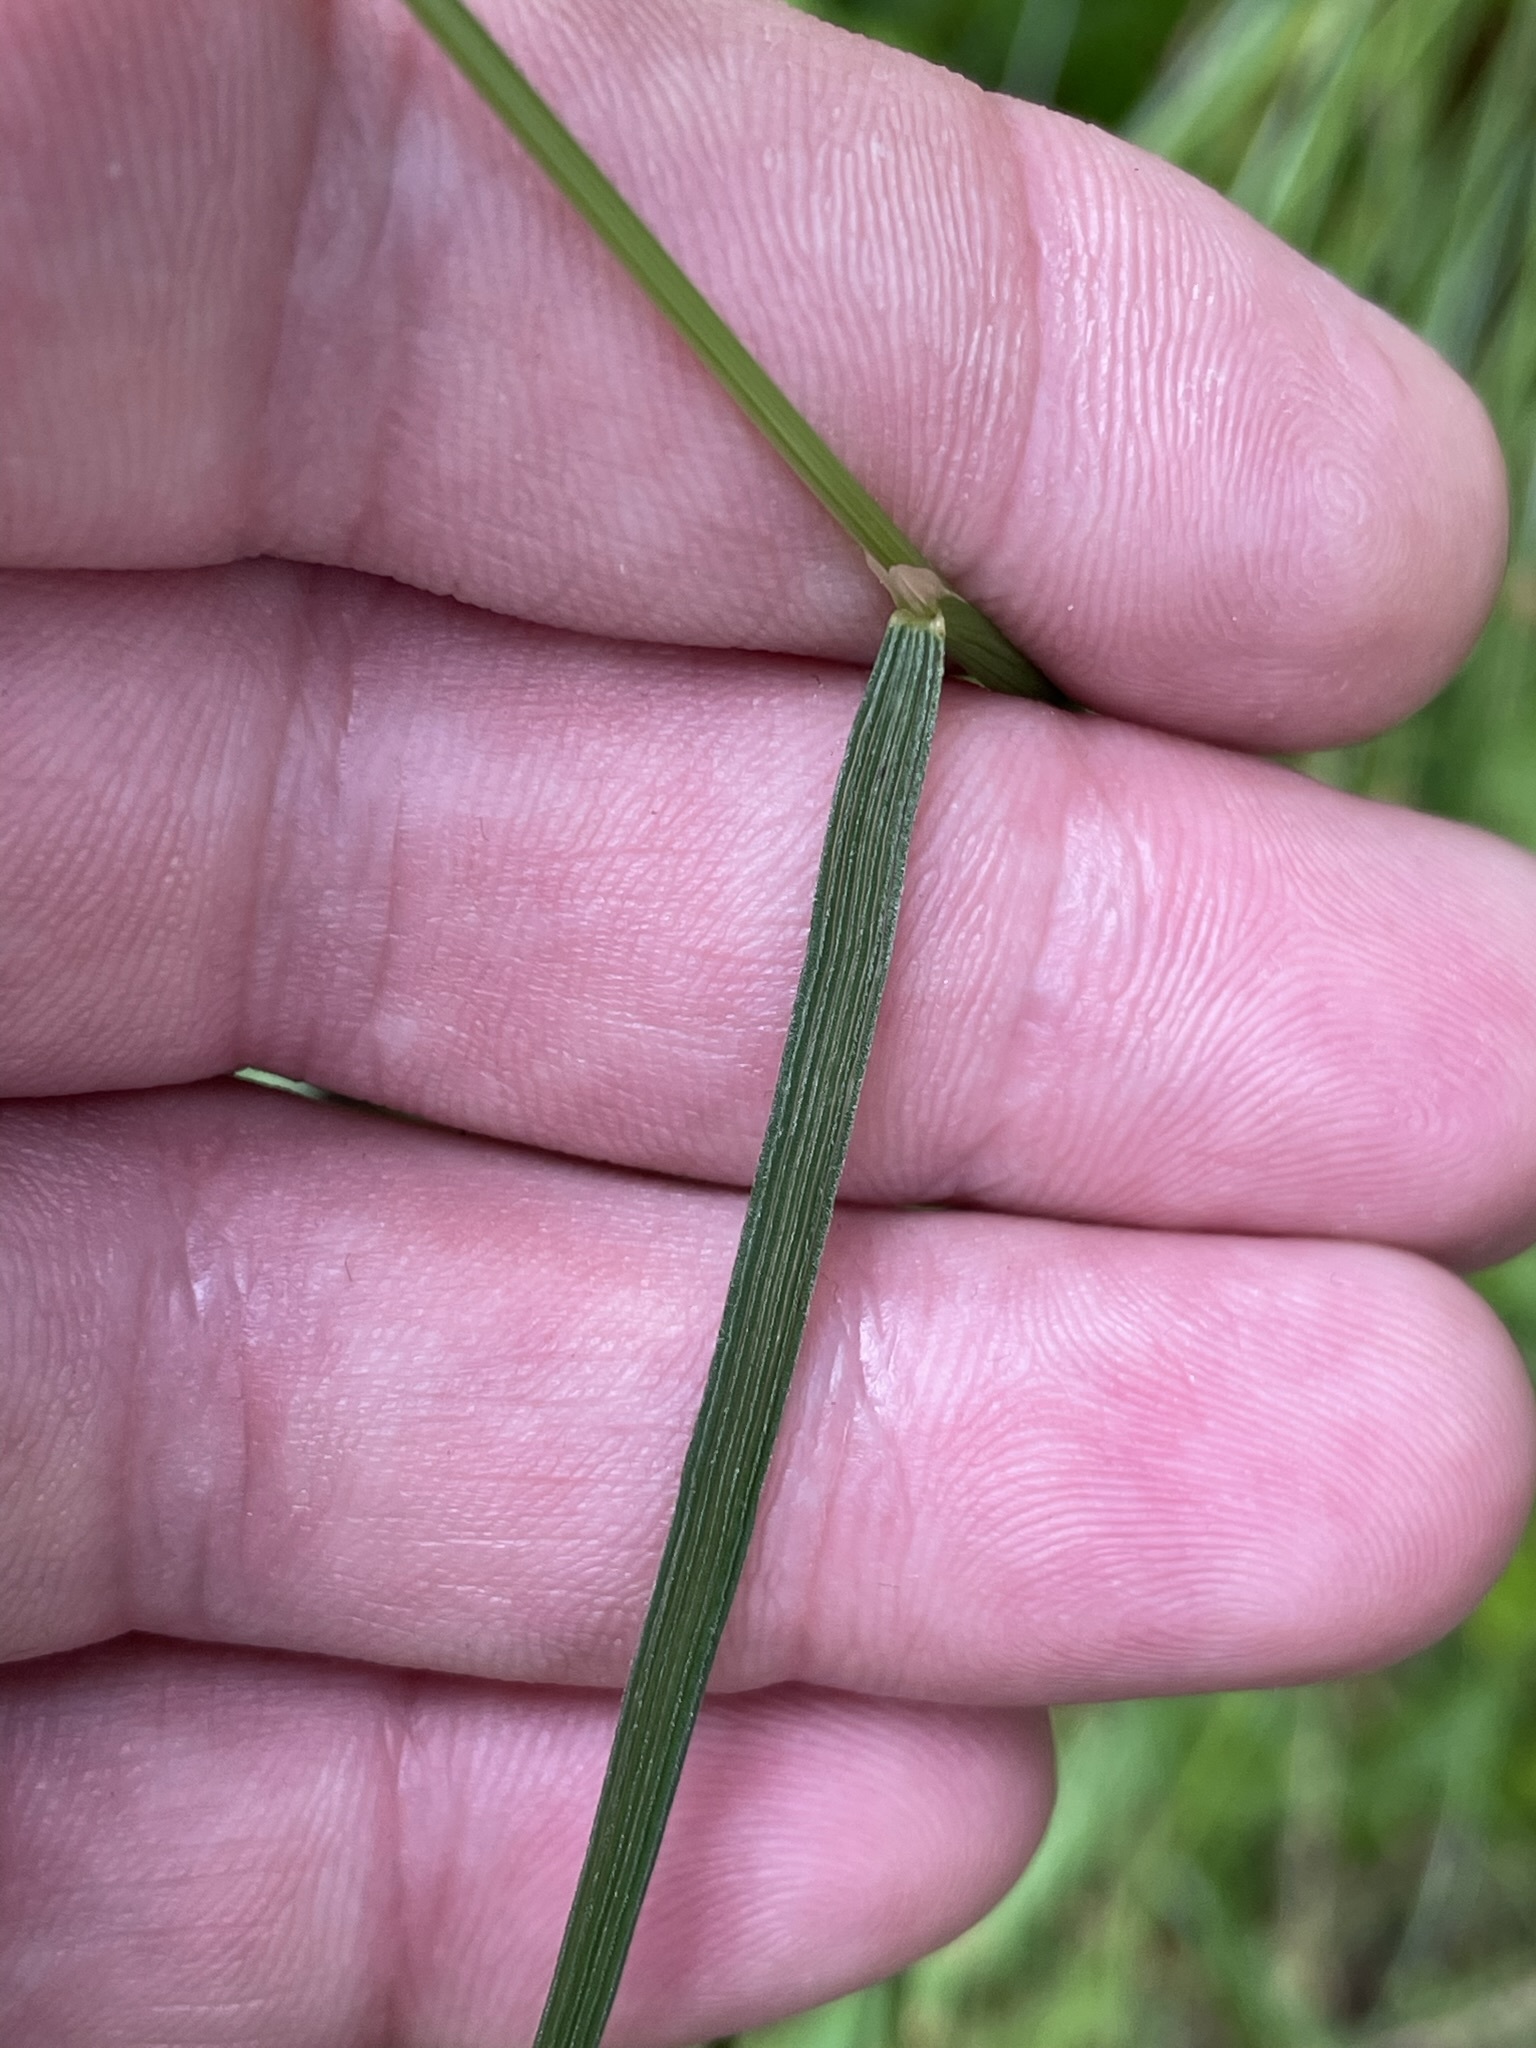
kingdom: Plantae
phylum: Tracheophyta
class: Liliopsida
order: Poales
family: Poaceae
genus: Deschampsia
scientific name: Deschampsia cespitosa
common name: Tufted hair-grass
